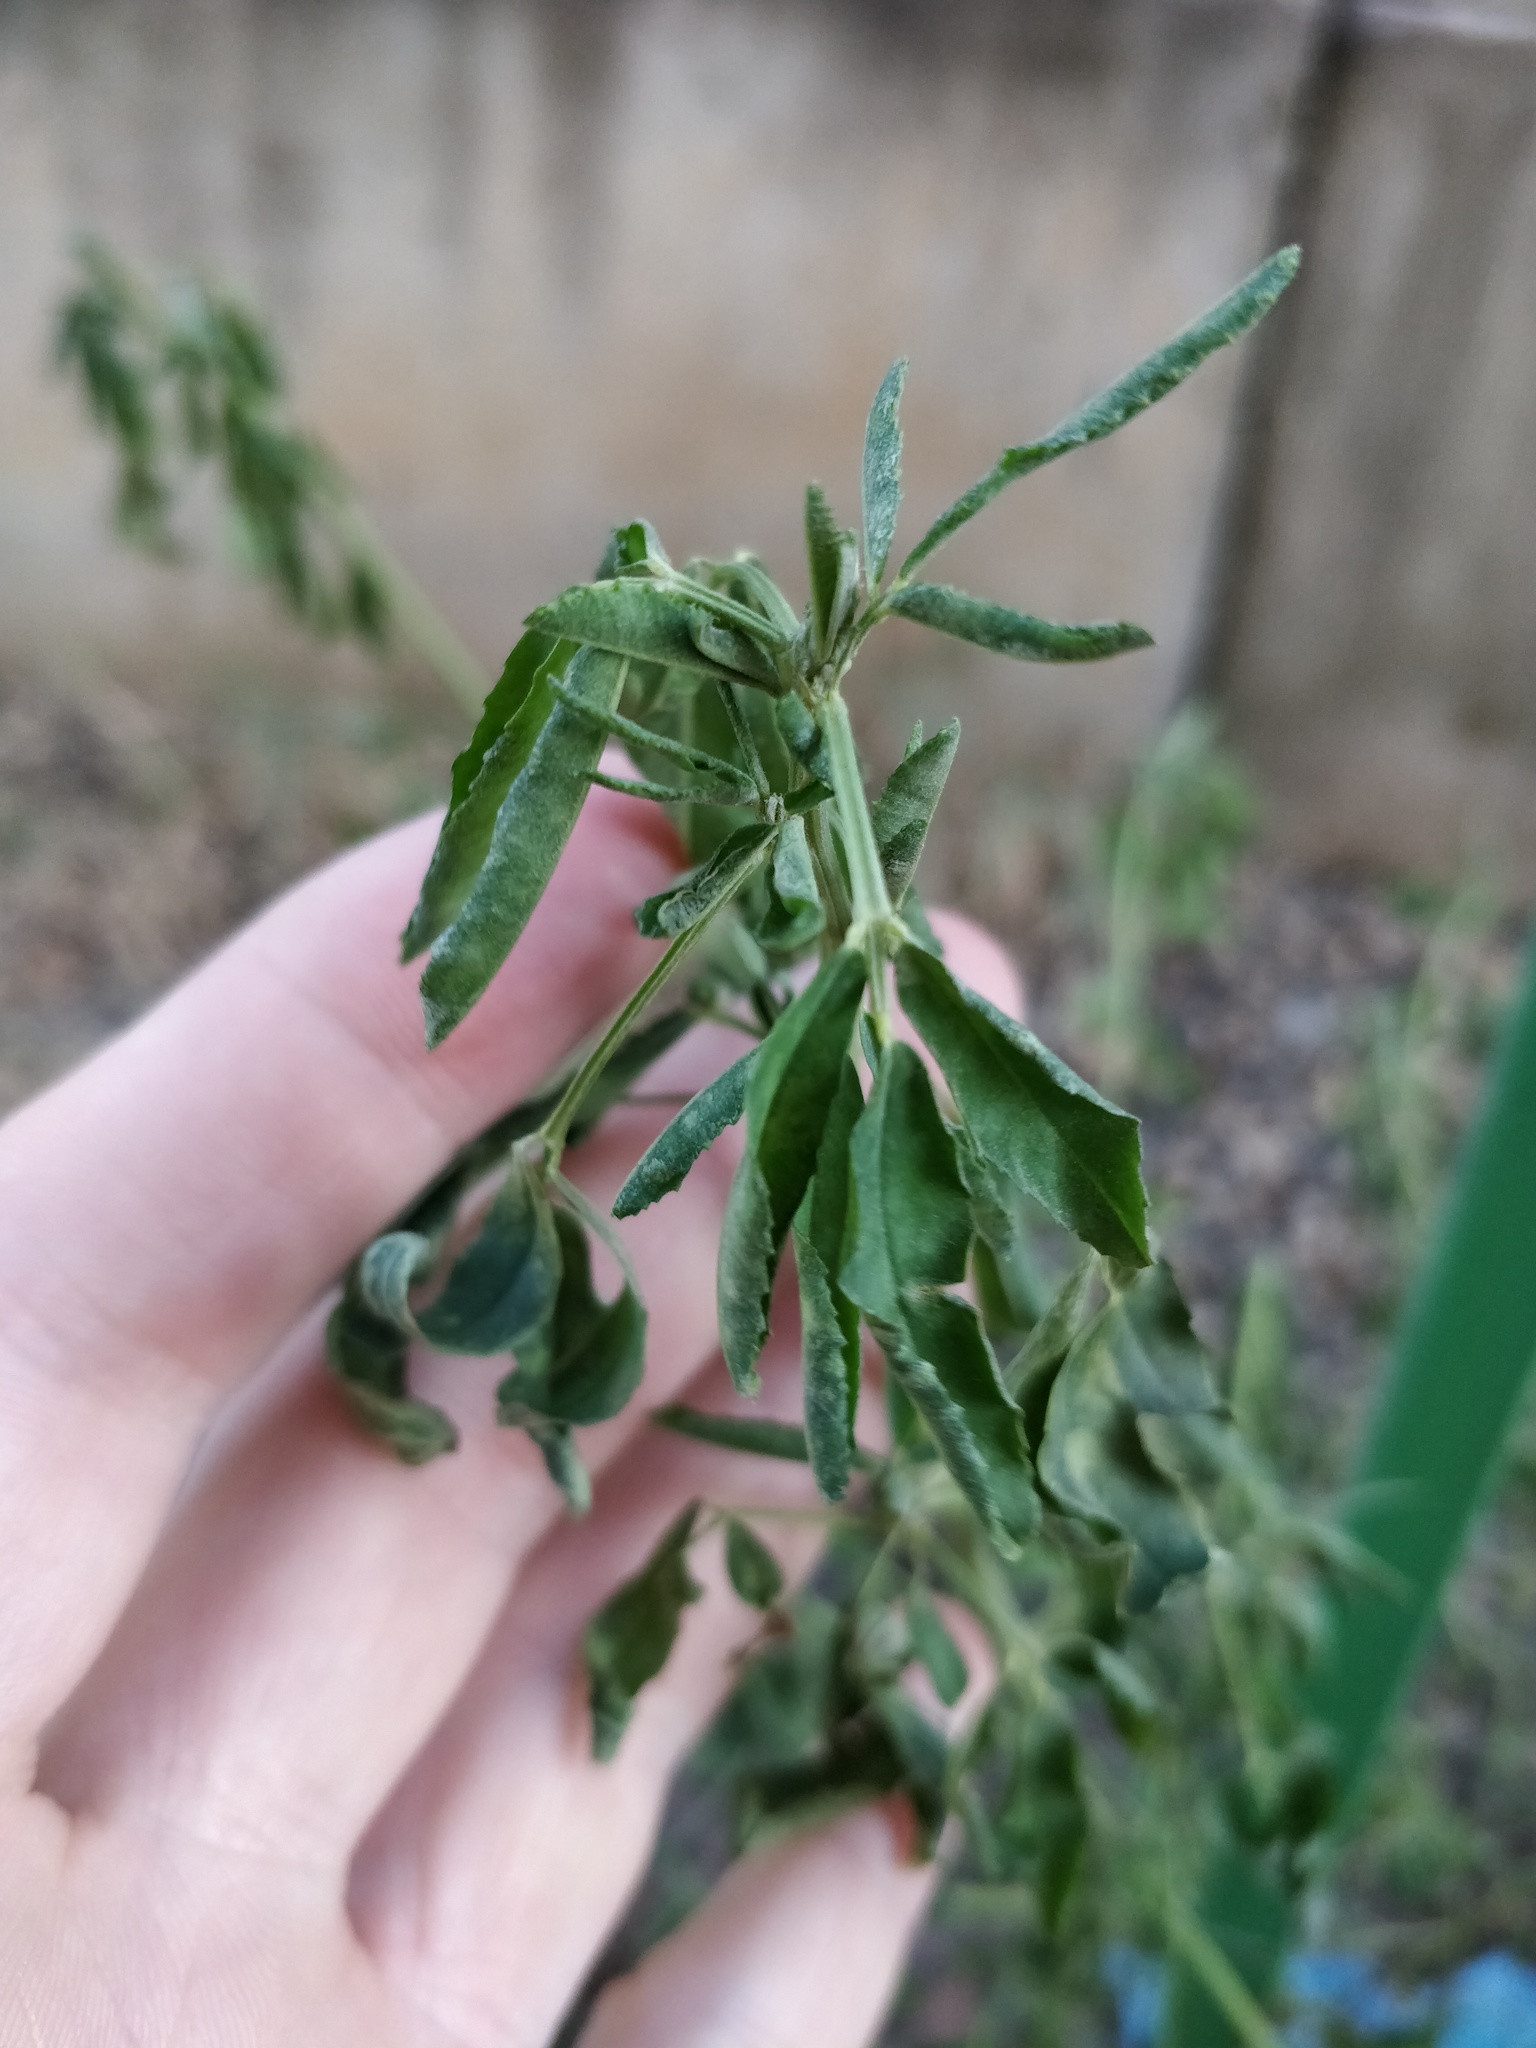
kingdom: Plantae
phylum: Tracheophyta
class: Magnoliopsida
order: Fabales
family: Fabaceae
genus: Melilotus
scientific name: Melilotus albus
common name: White melilot
